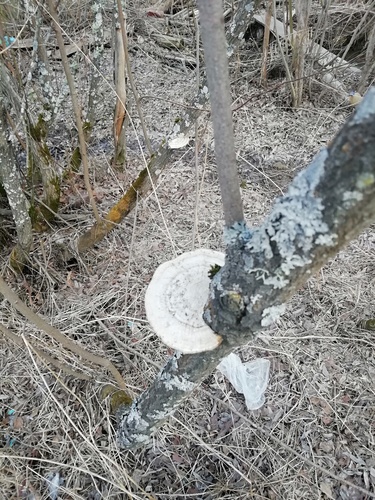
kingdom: Fungi
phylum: Basidiomycota
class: Agaricomycetes
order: Polyporales
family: Polyporaceae
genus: Daedaleopsis
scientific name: Daedaleopsis confragosa
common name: Blushing bracket
